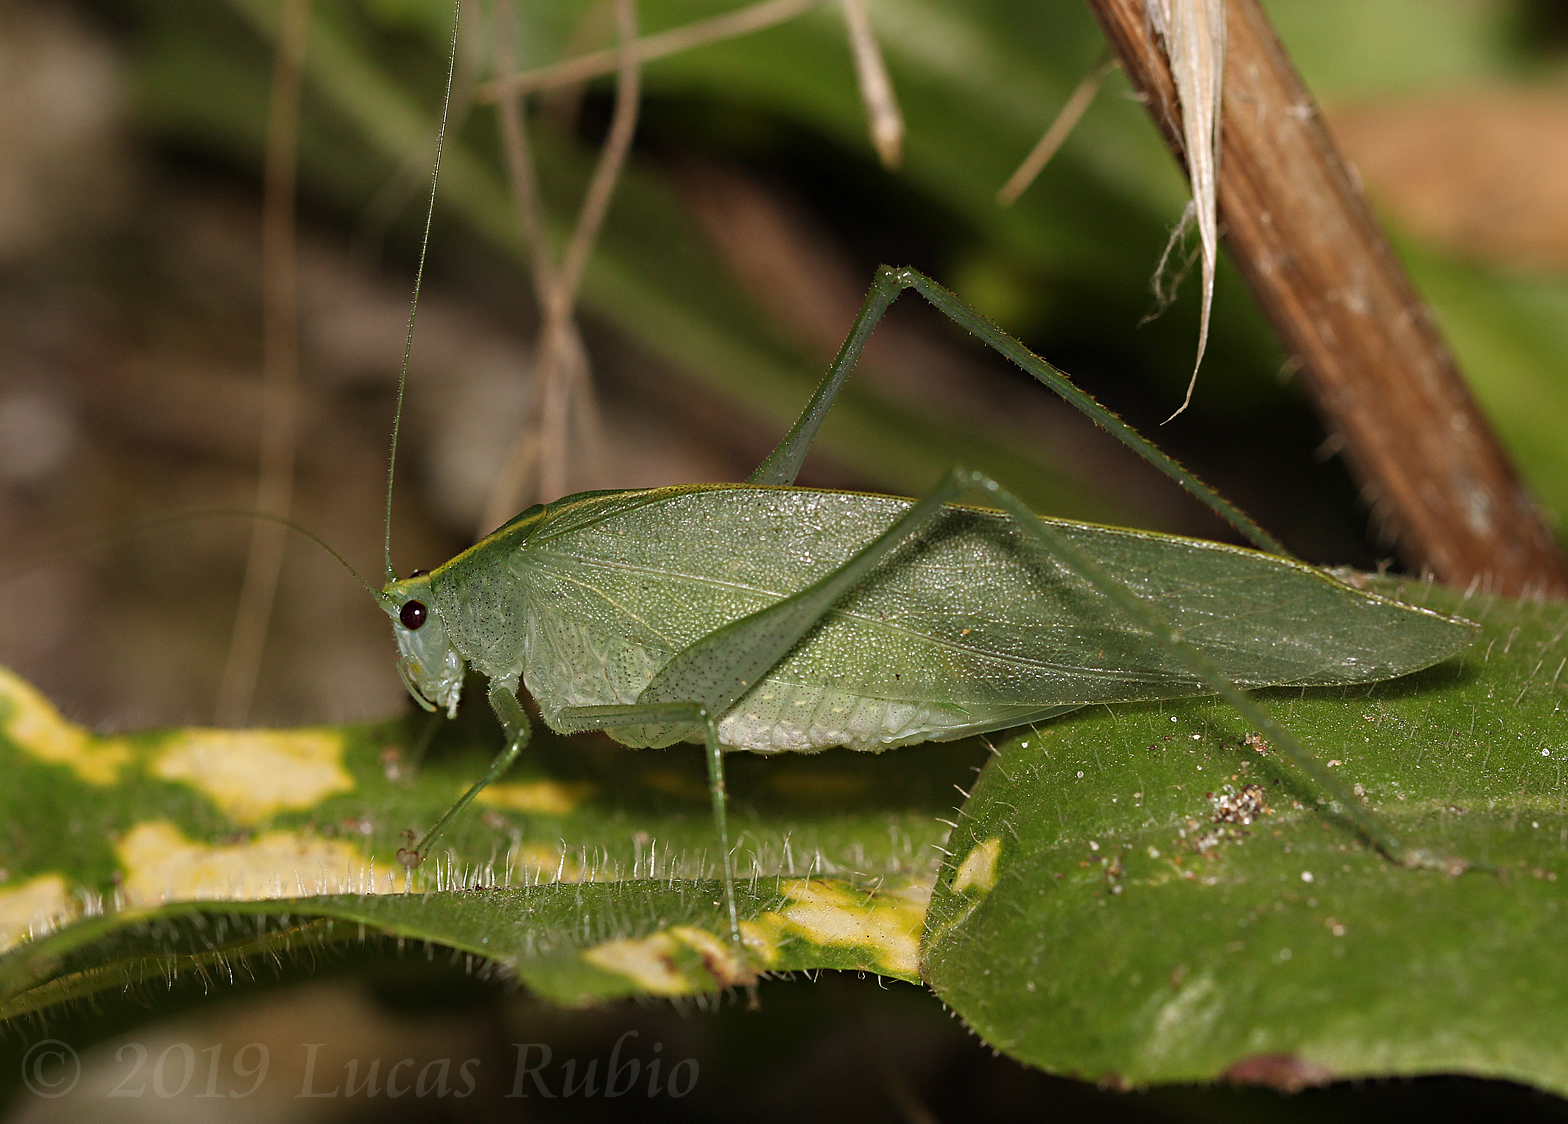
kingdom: Animalia
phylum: Arthropoda
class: Insecta
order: Orthoptera
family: Tettigoniidae
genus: Grammadera
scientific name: Grammadera clara
